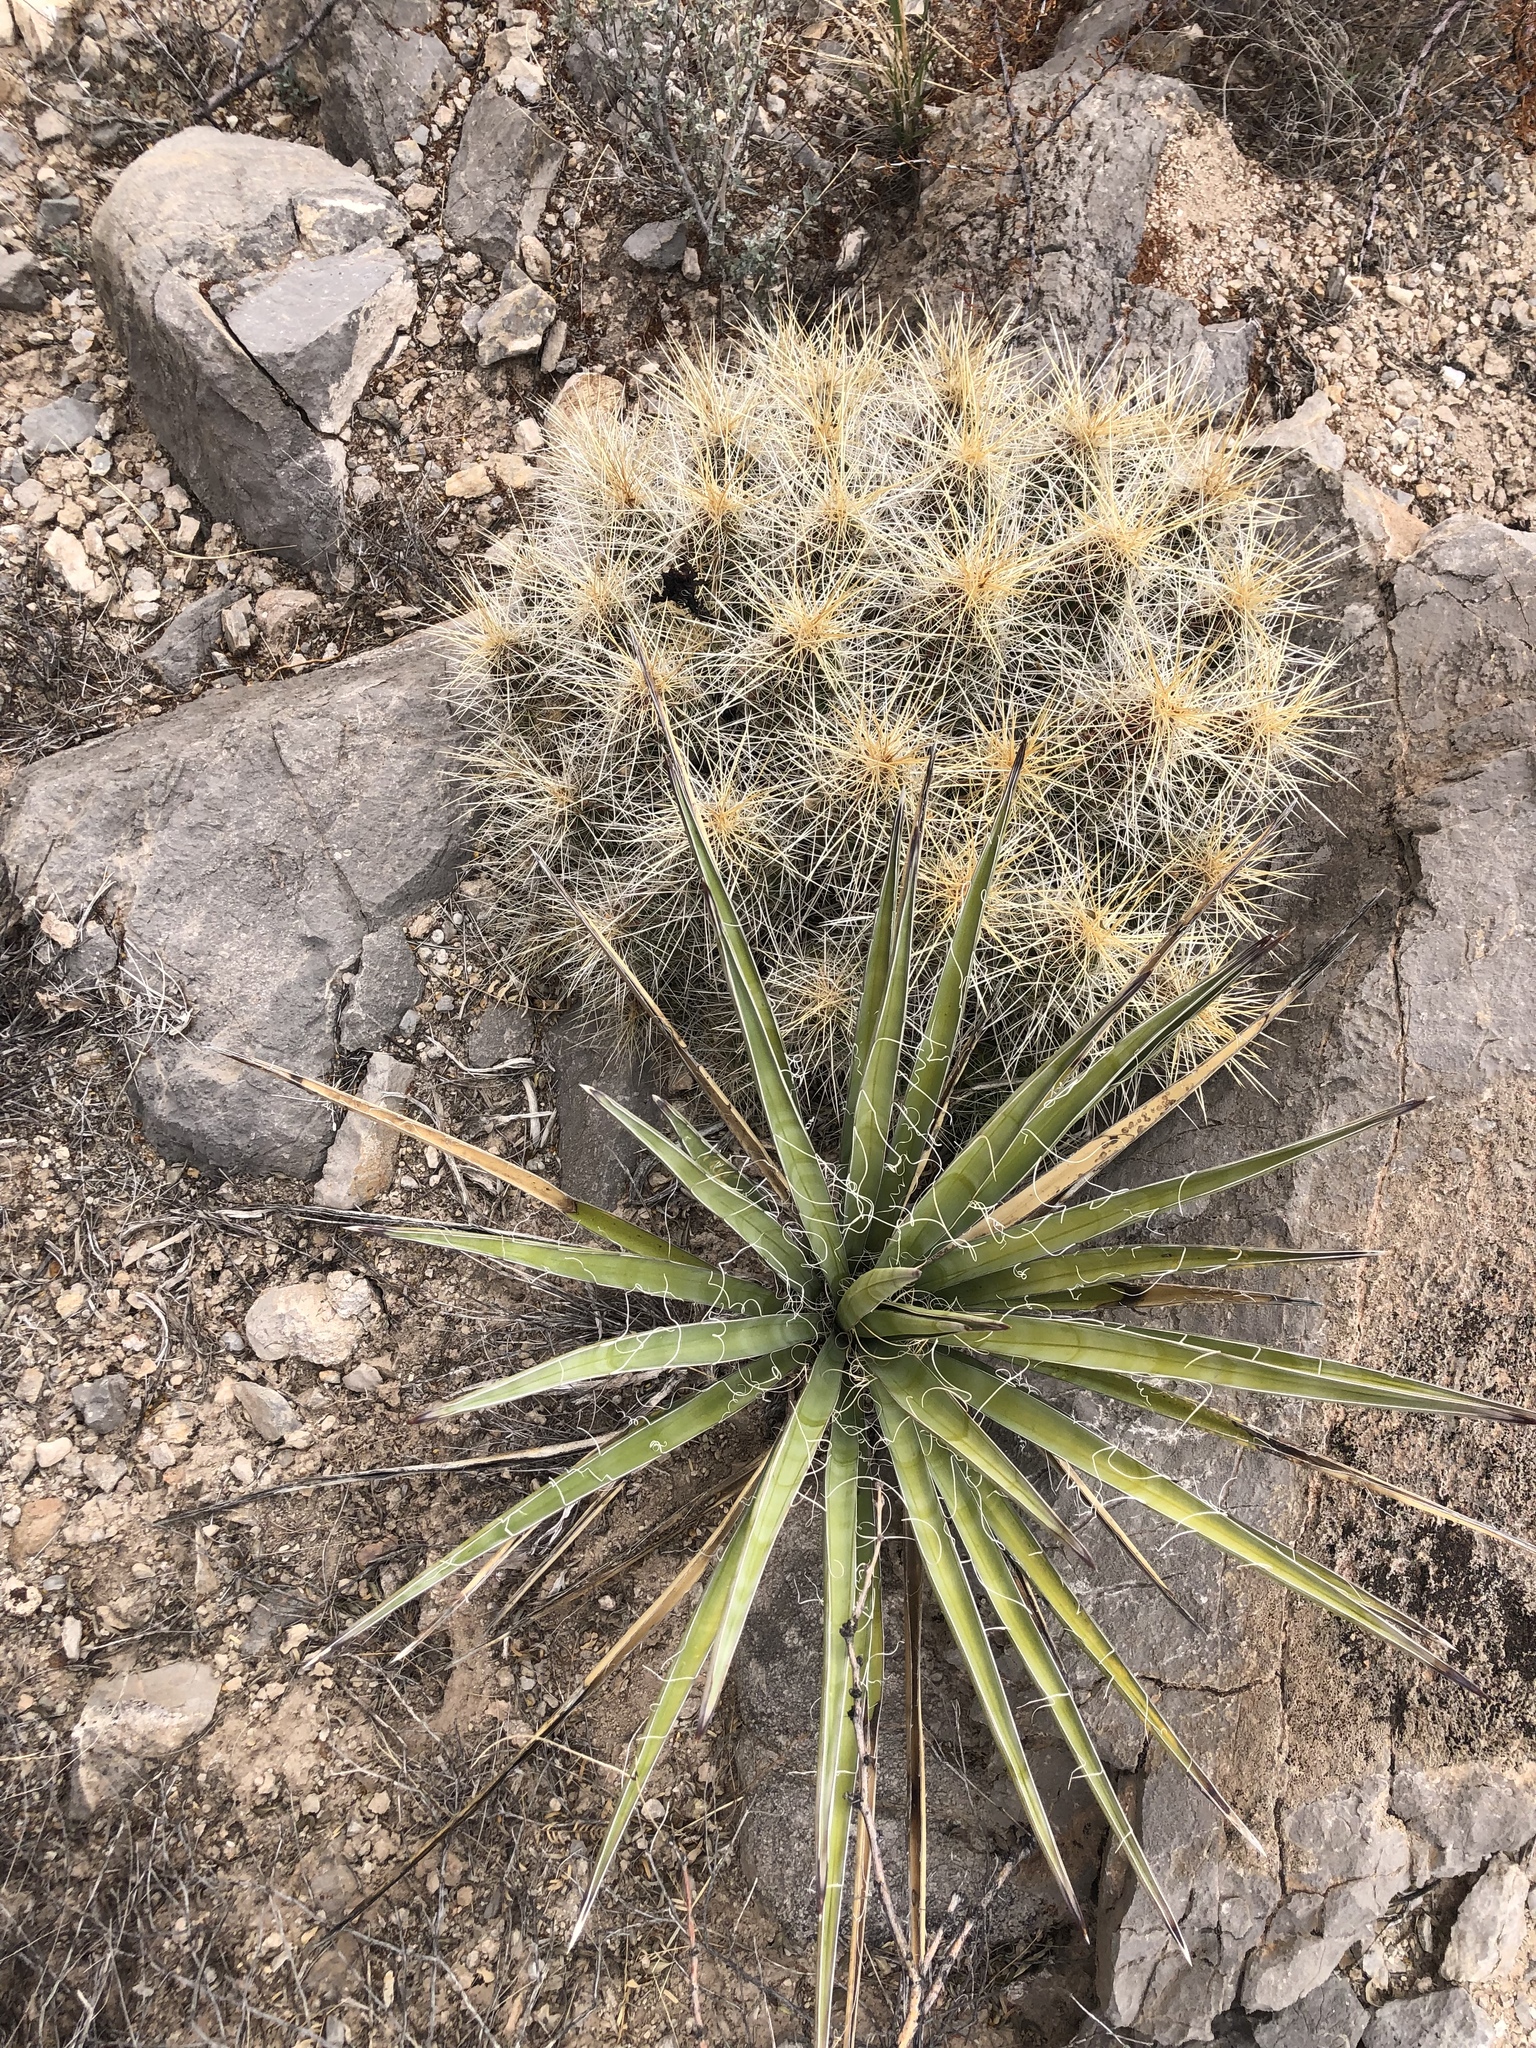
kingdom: Plantae
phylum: Tracheophyta
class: Magnoliopsida
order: Caryophyllales
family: Cactaceae
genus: Echinocereus
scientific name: Echinocereus stramineus
